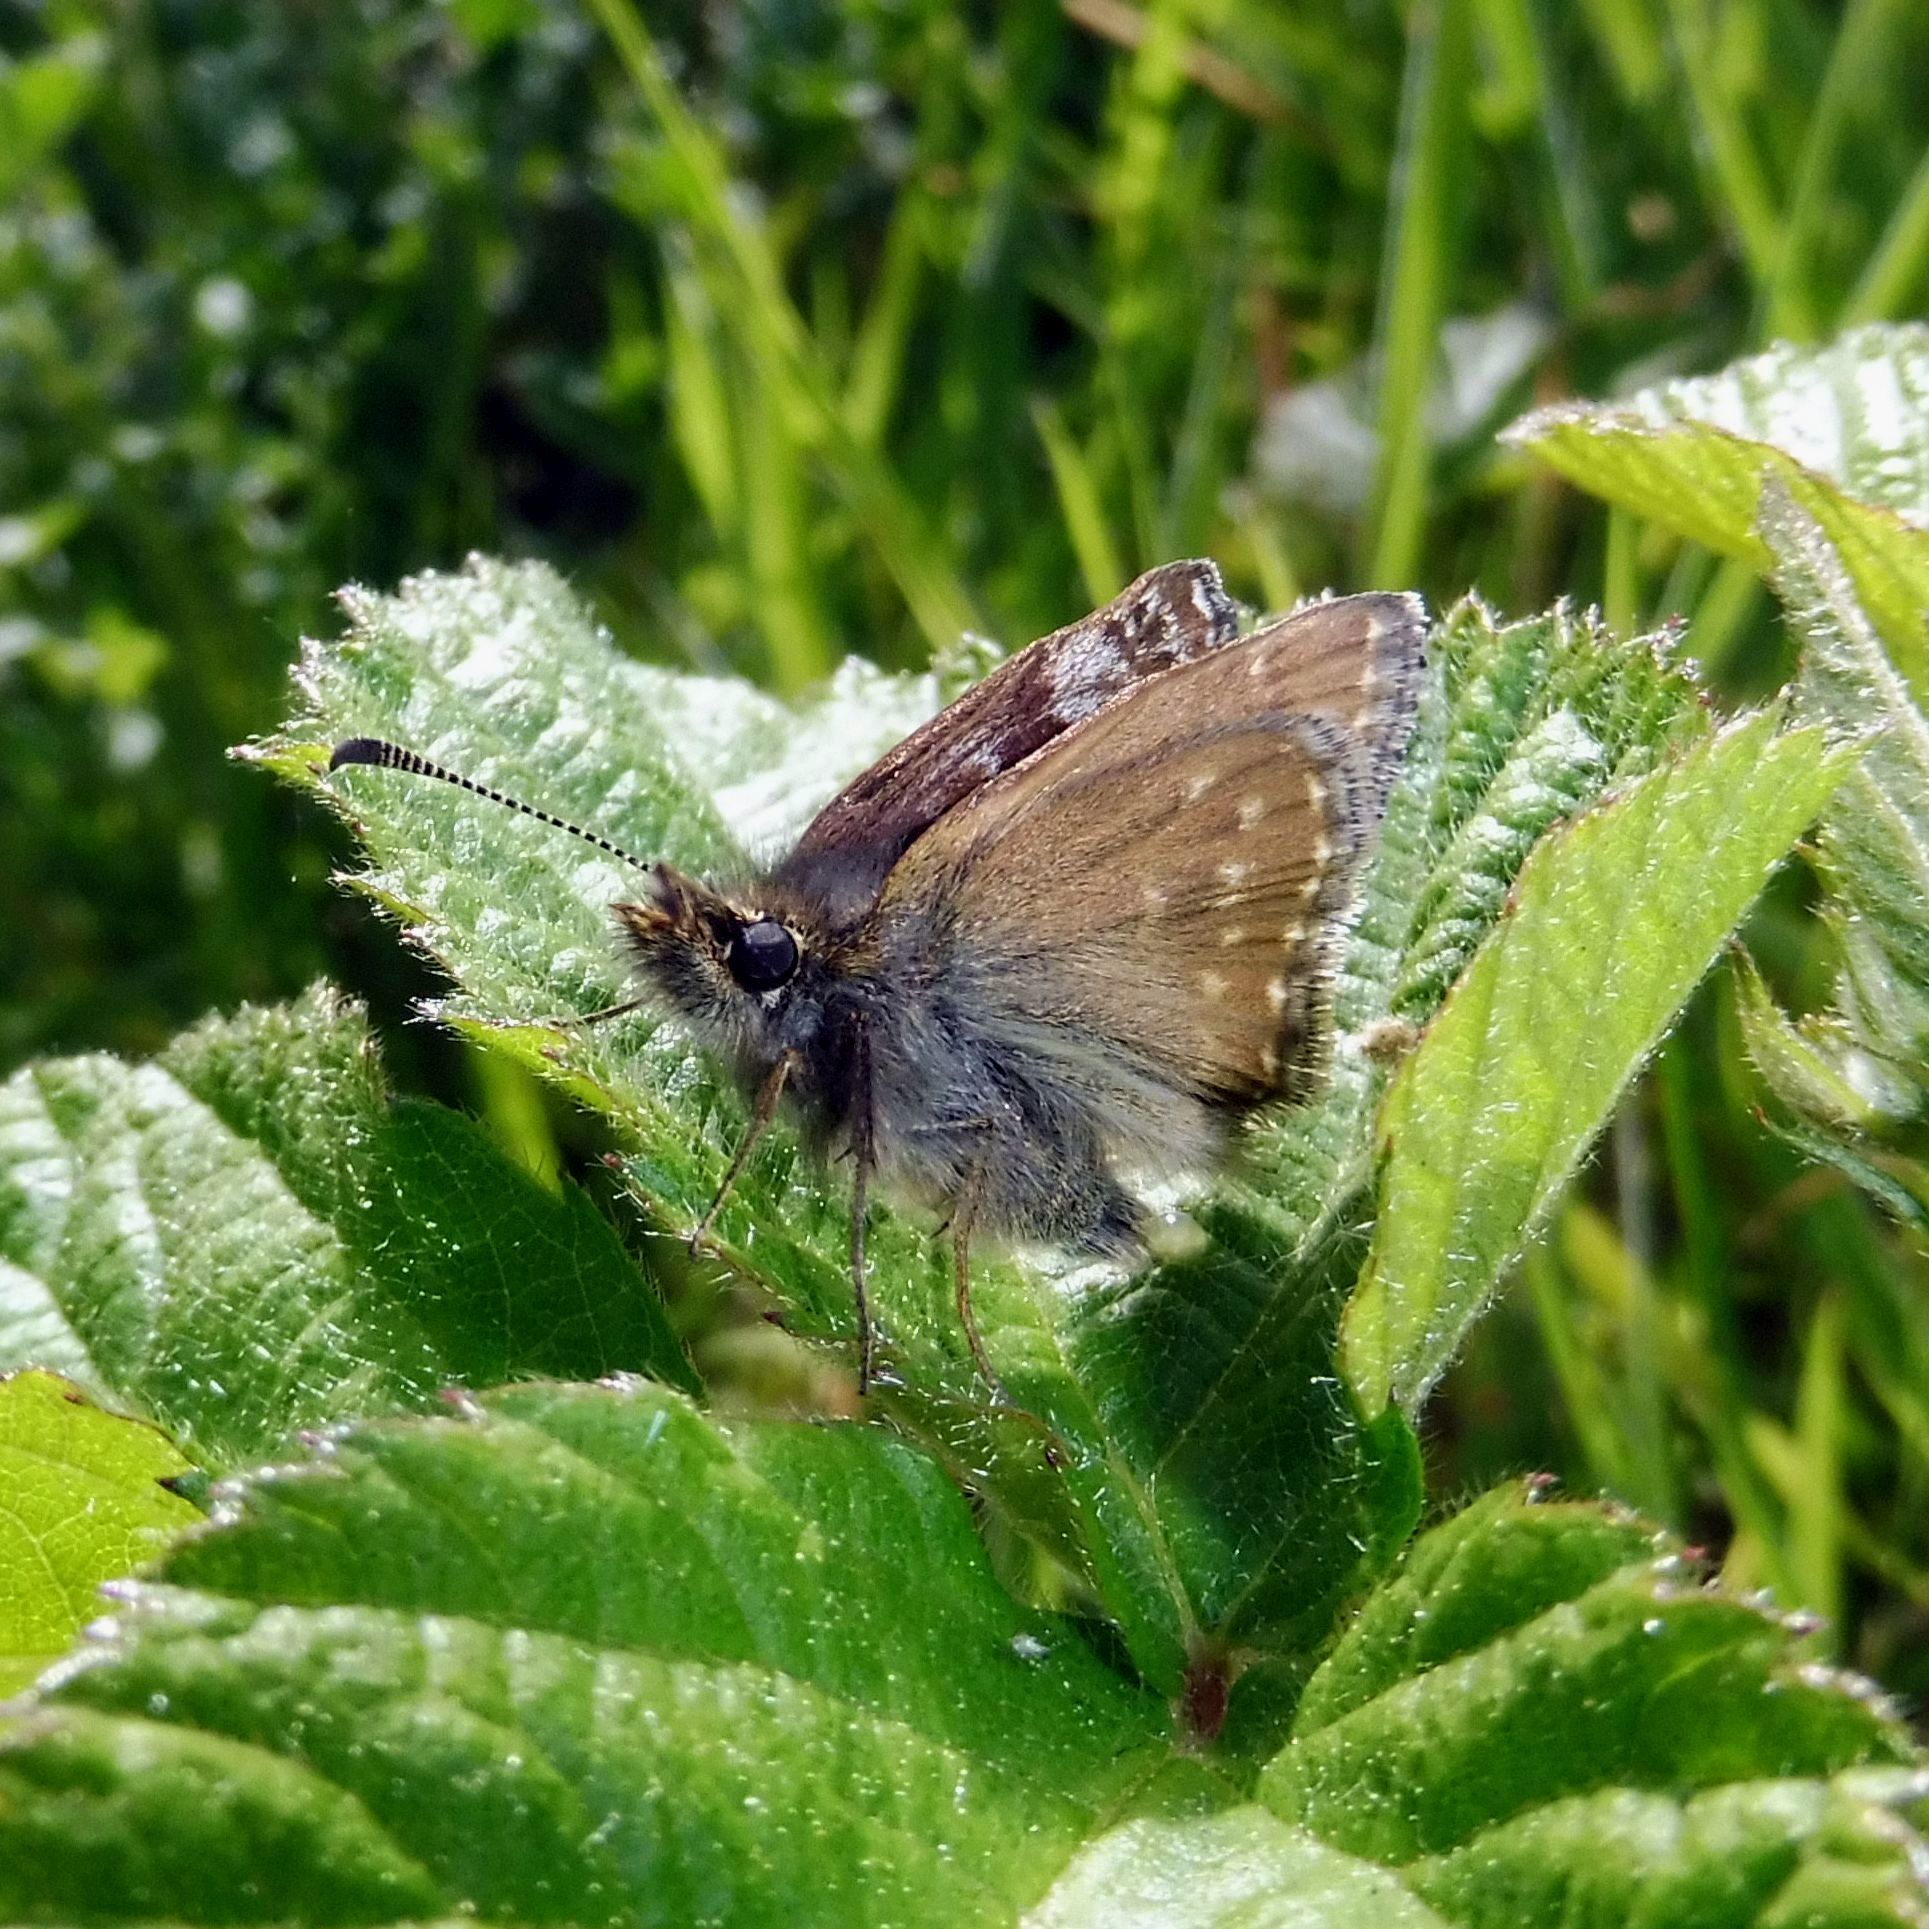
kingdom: Animalia
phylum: Arthropoda
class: Insecta
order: Lepidoptera
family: Hesperiidae
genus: Erynnis
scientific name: Erynnis tages
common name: Dingy skipper
